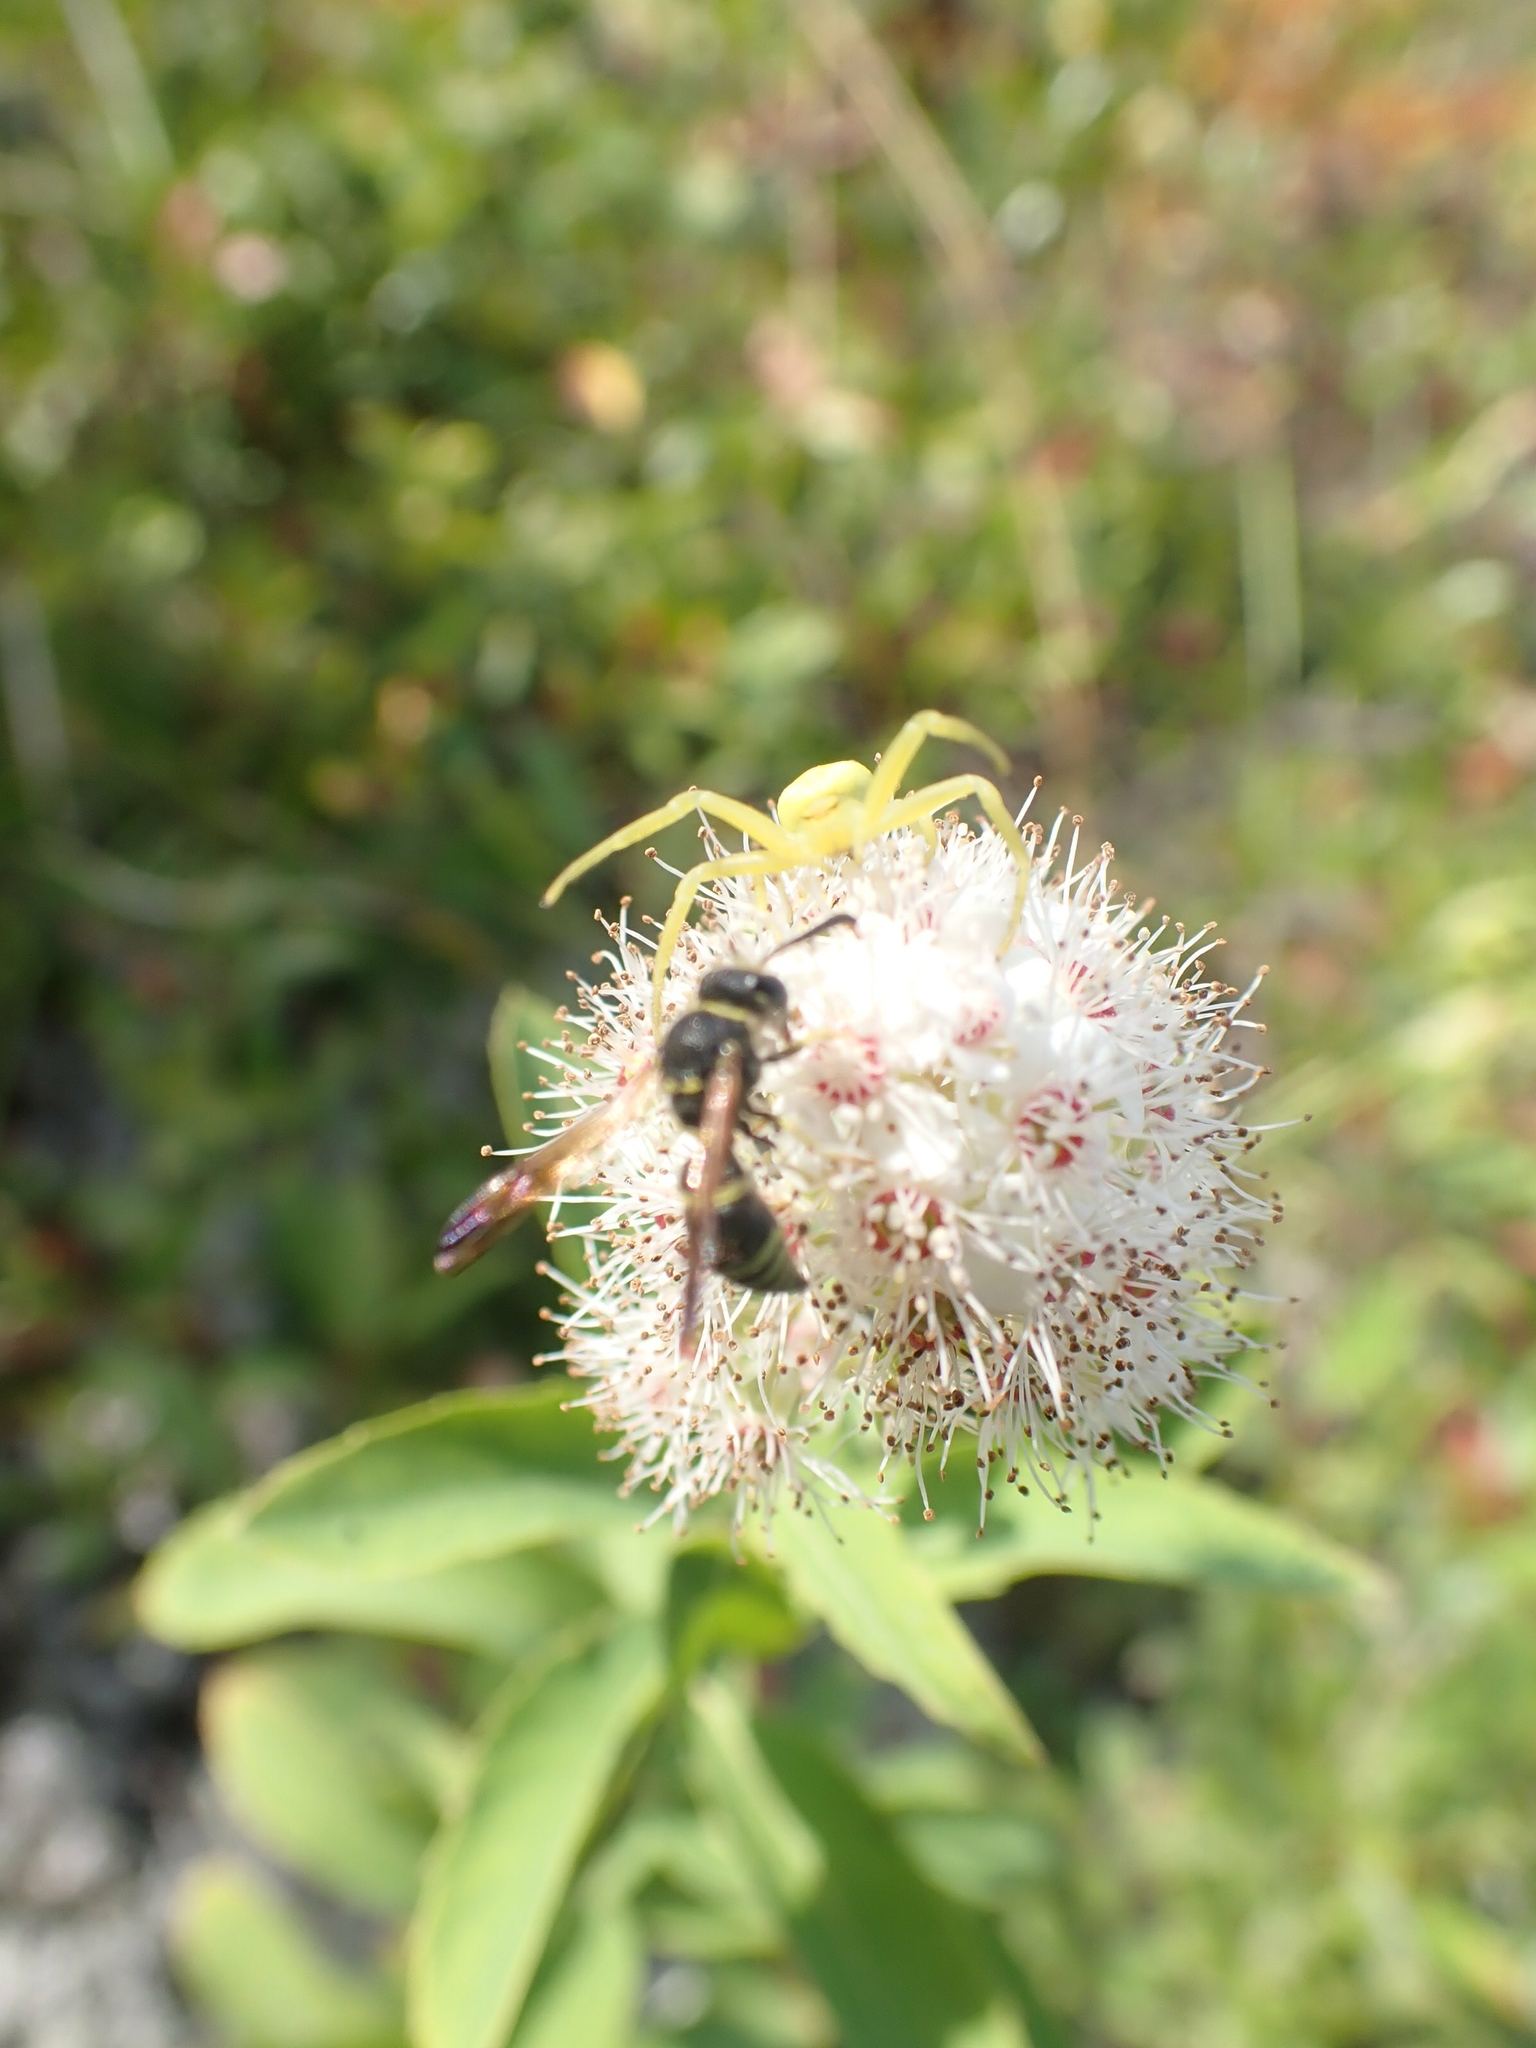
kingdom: Plantae
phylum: Tracheophyta
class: Magnoliopsida
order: Rosales
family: Rosaceae
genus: Spiraea
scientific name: Spiraea alba
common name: Pale bridewort
